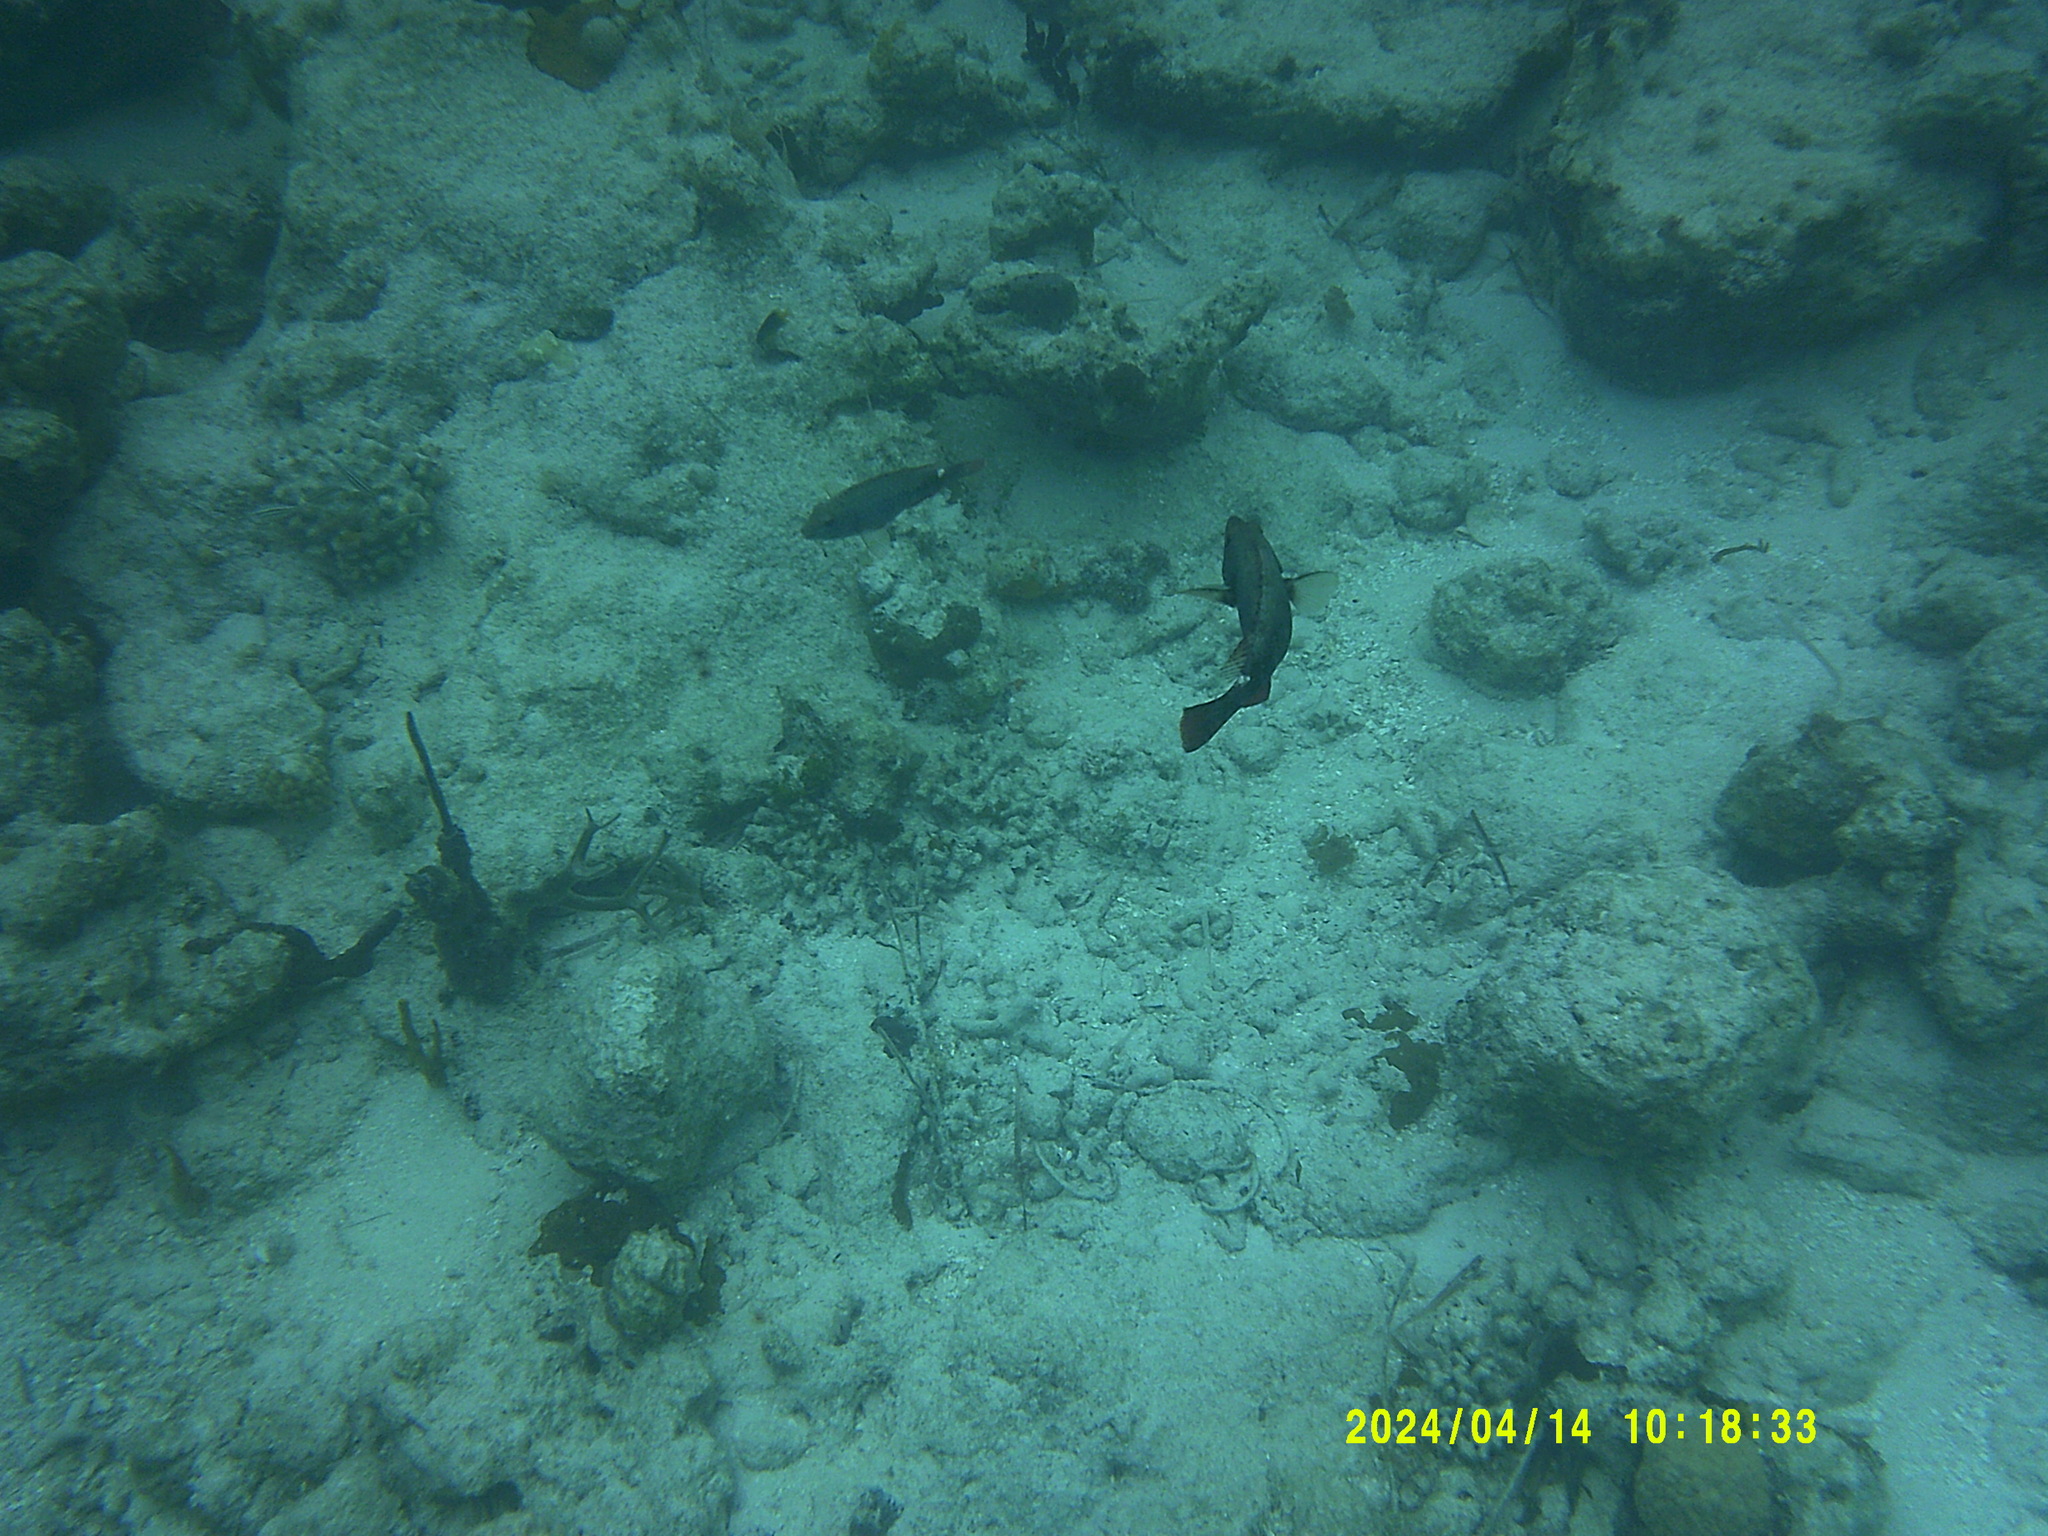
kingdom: Animalia
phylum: Chordata
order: Perciformes
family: Scaridae
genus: Sparisoma
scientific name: Sparisoma aurofrenatum
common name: Redband parrotfish
